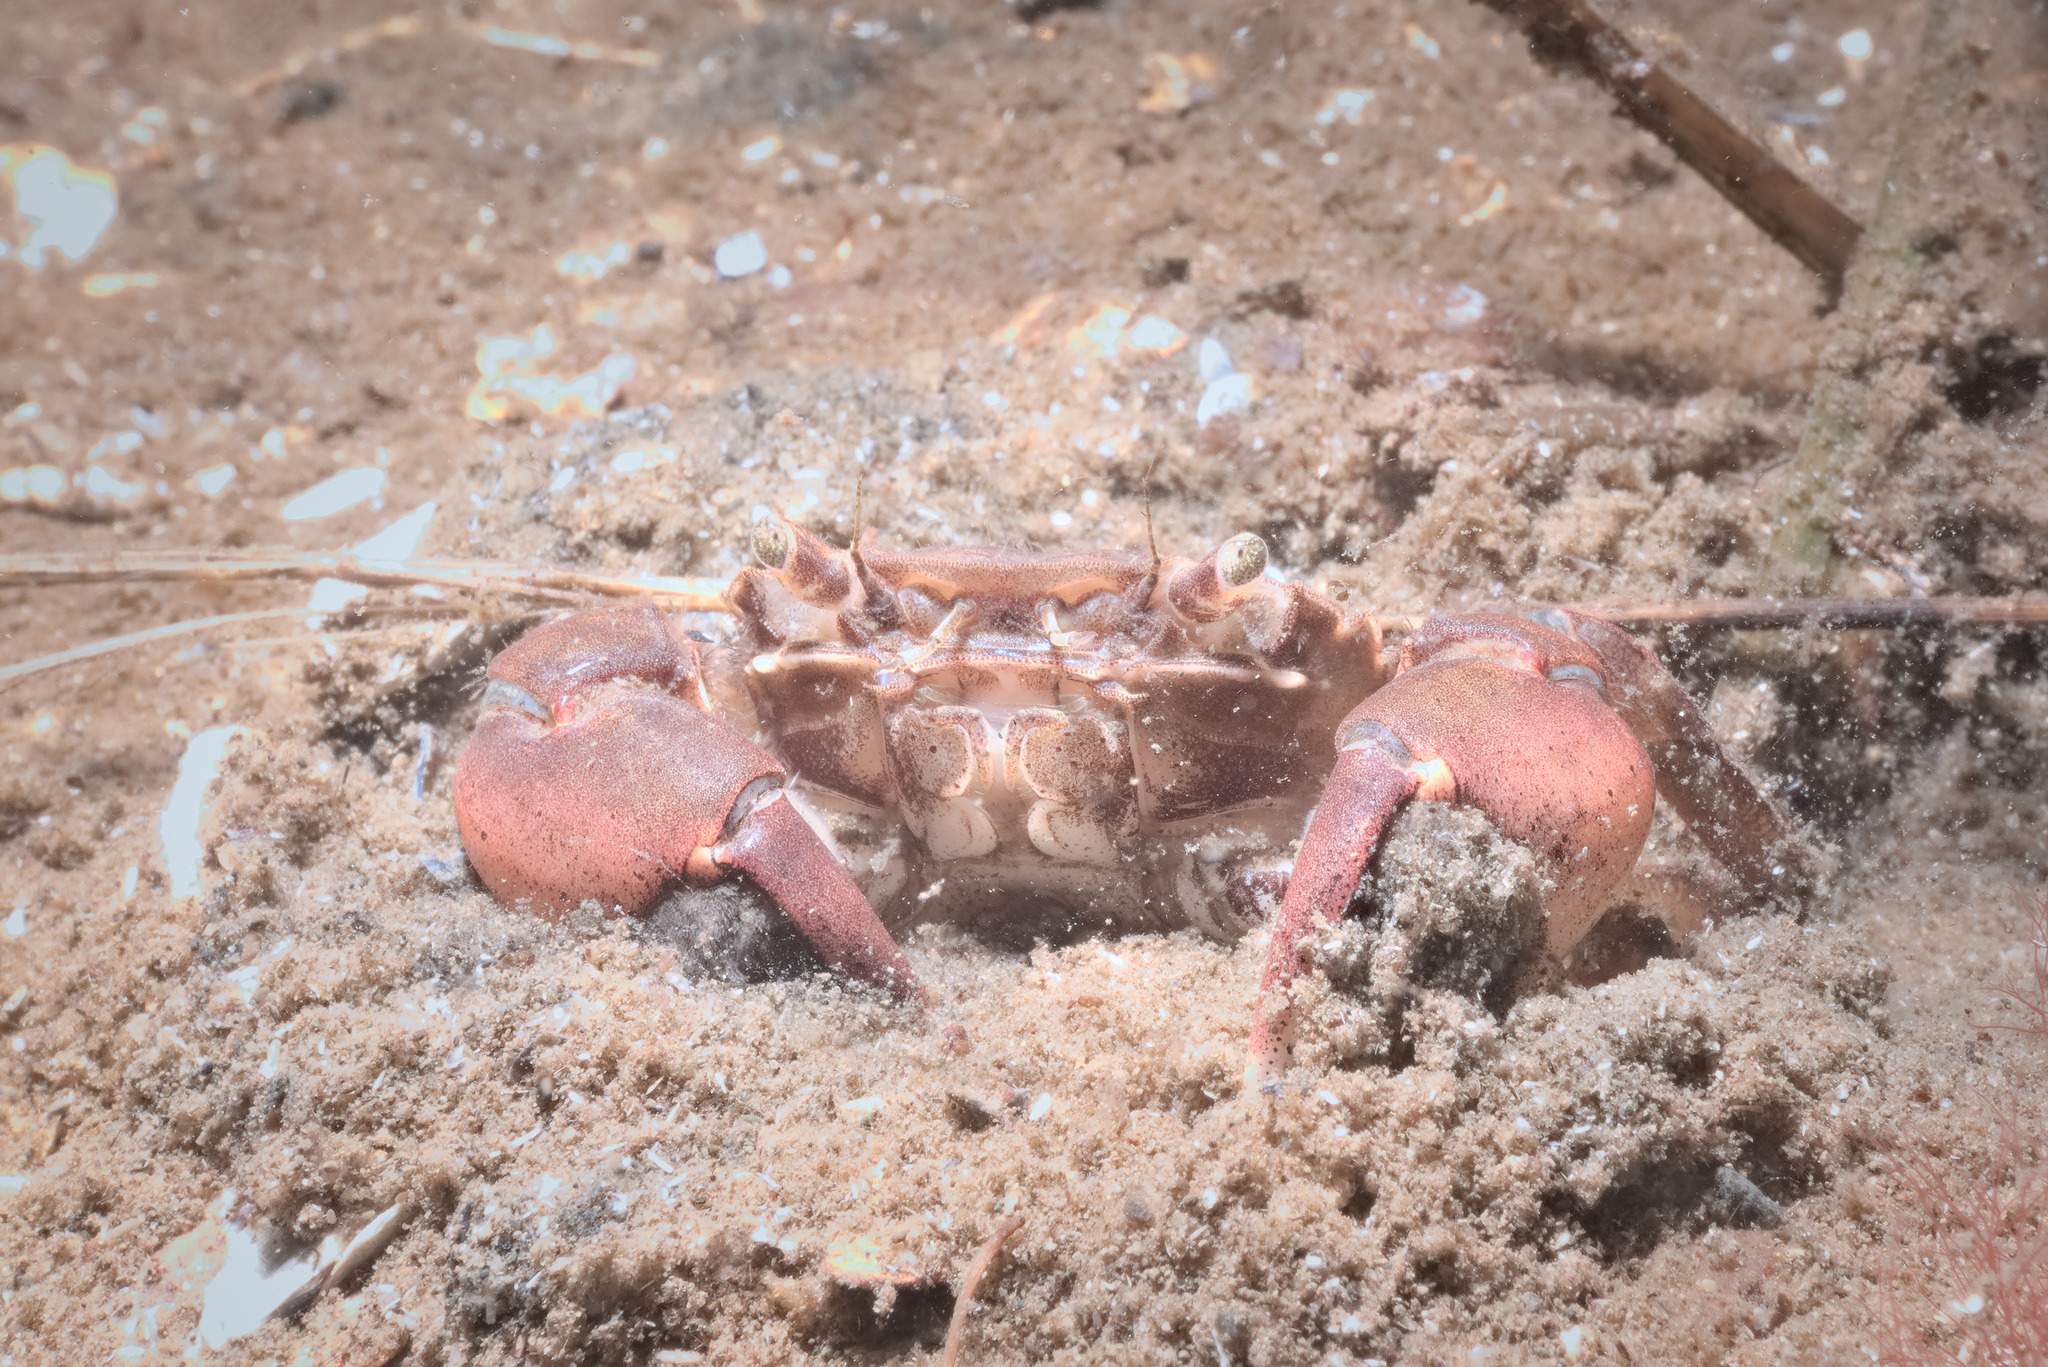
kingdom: Animalia
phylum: Arthropoda
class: Malacostraca
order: Decapoda
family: Varunidae
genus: Hemigrapsus
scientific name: Hemigrapsus takanoi
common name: Asian brush crab
